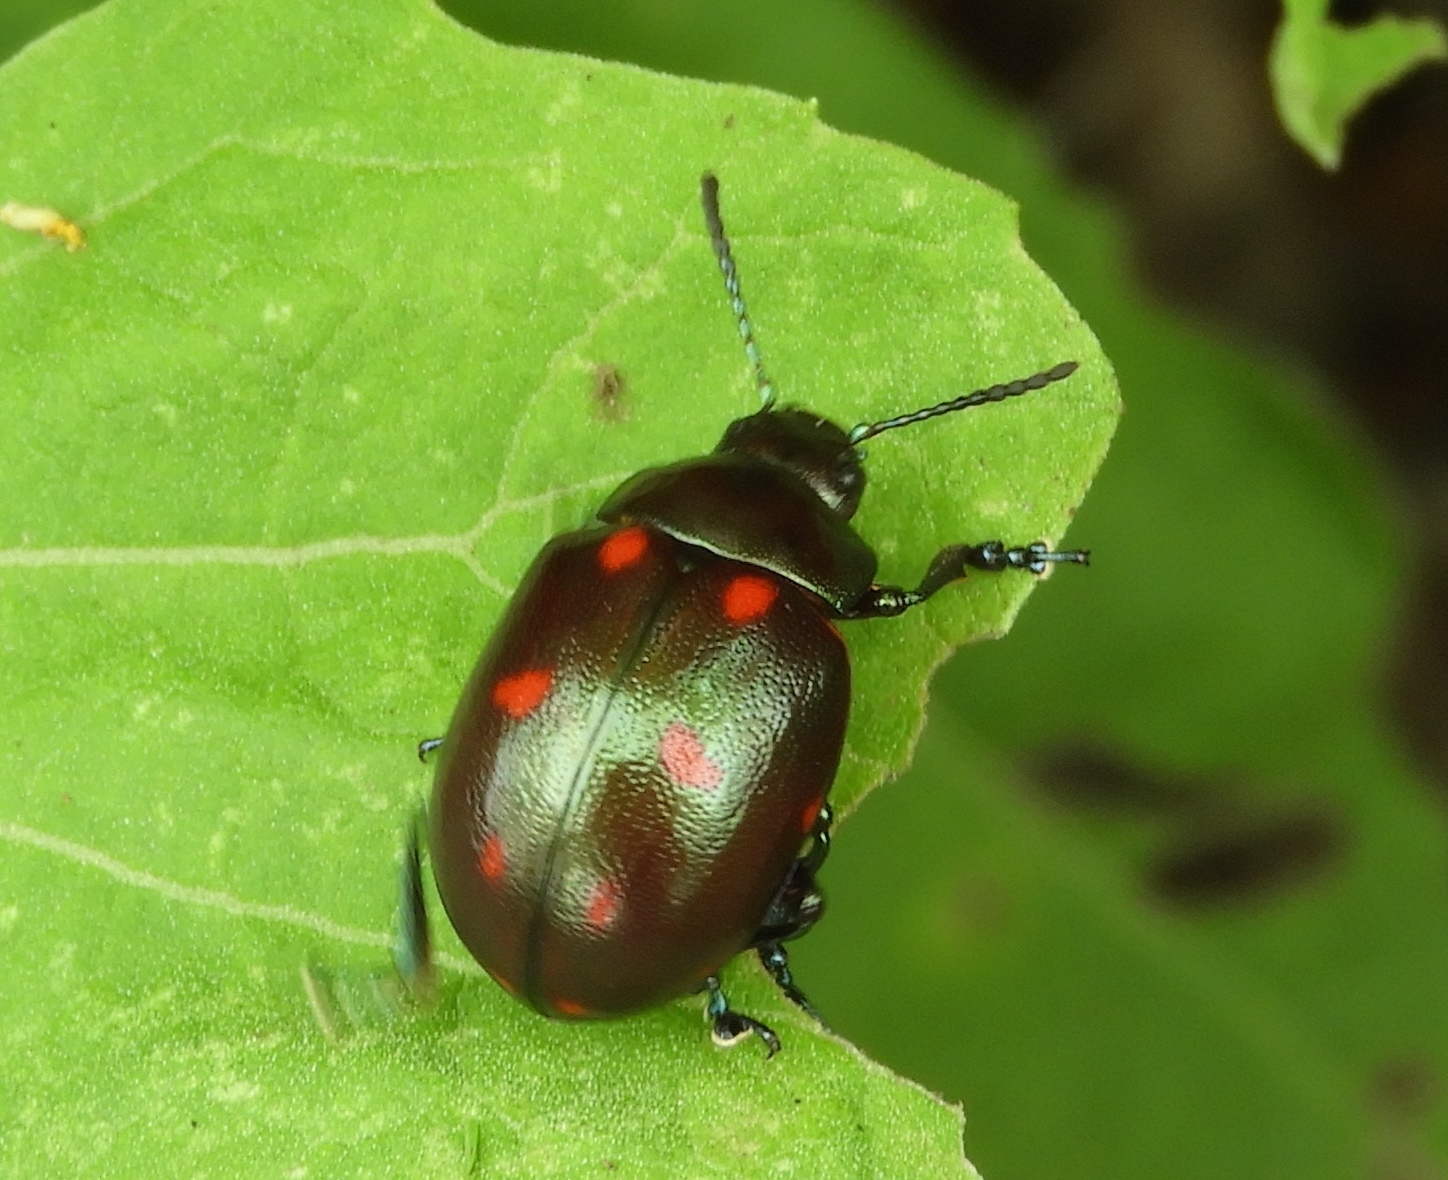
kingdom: Animalia
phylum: Arthropoda
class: Insecta
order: Coleoptera
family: Chrysomelidae
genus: Leptinotarsa
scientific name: Leptinotarsa behrensi
